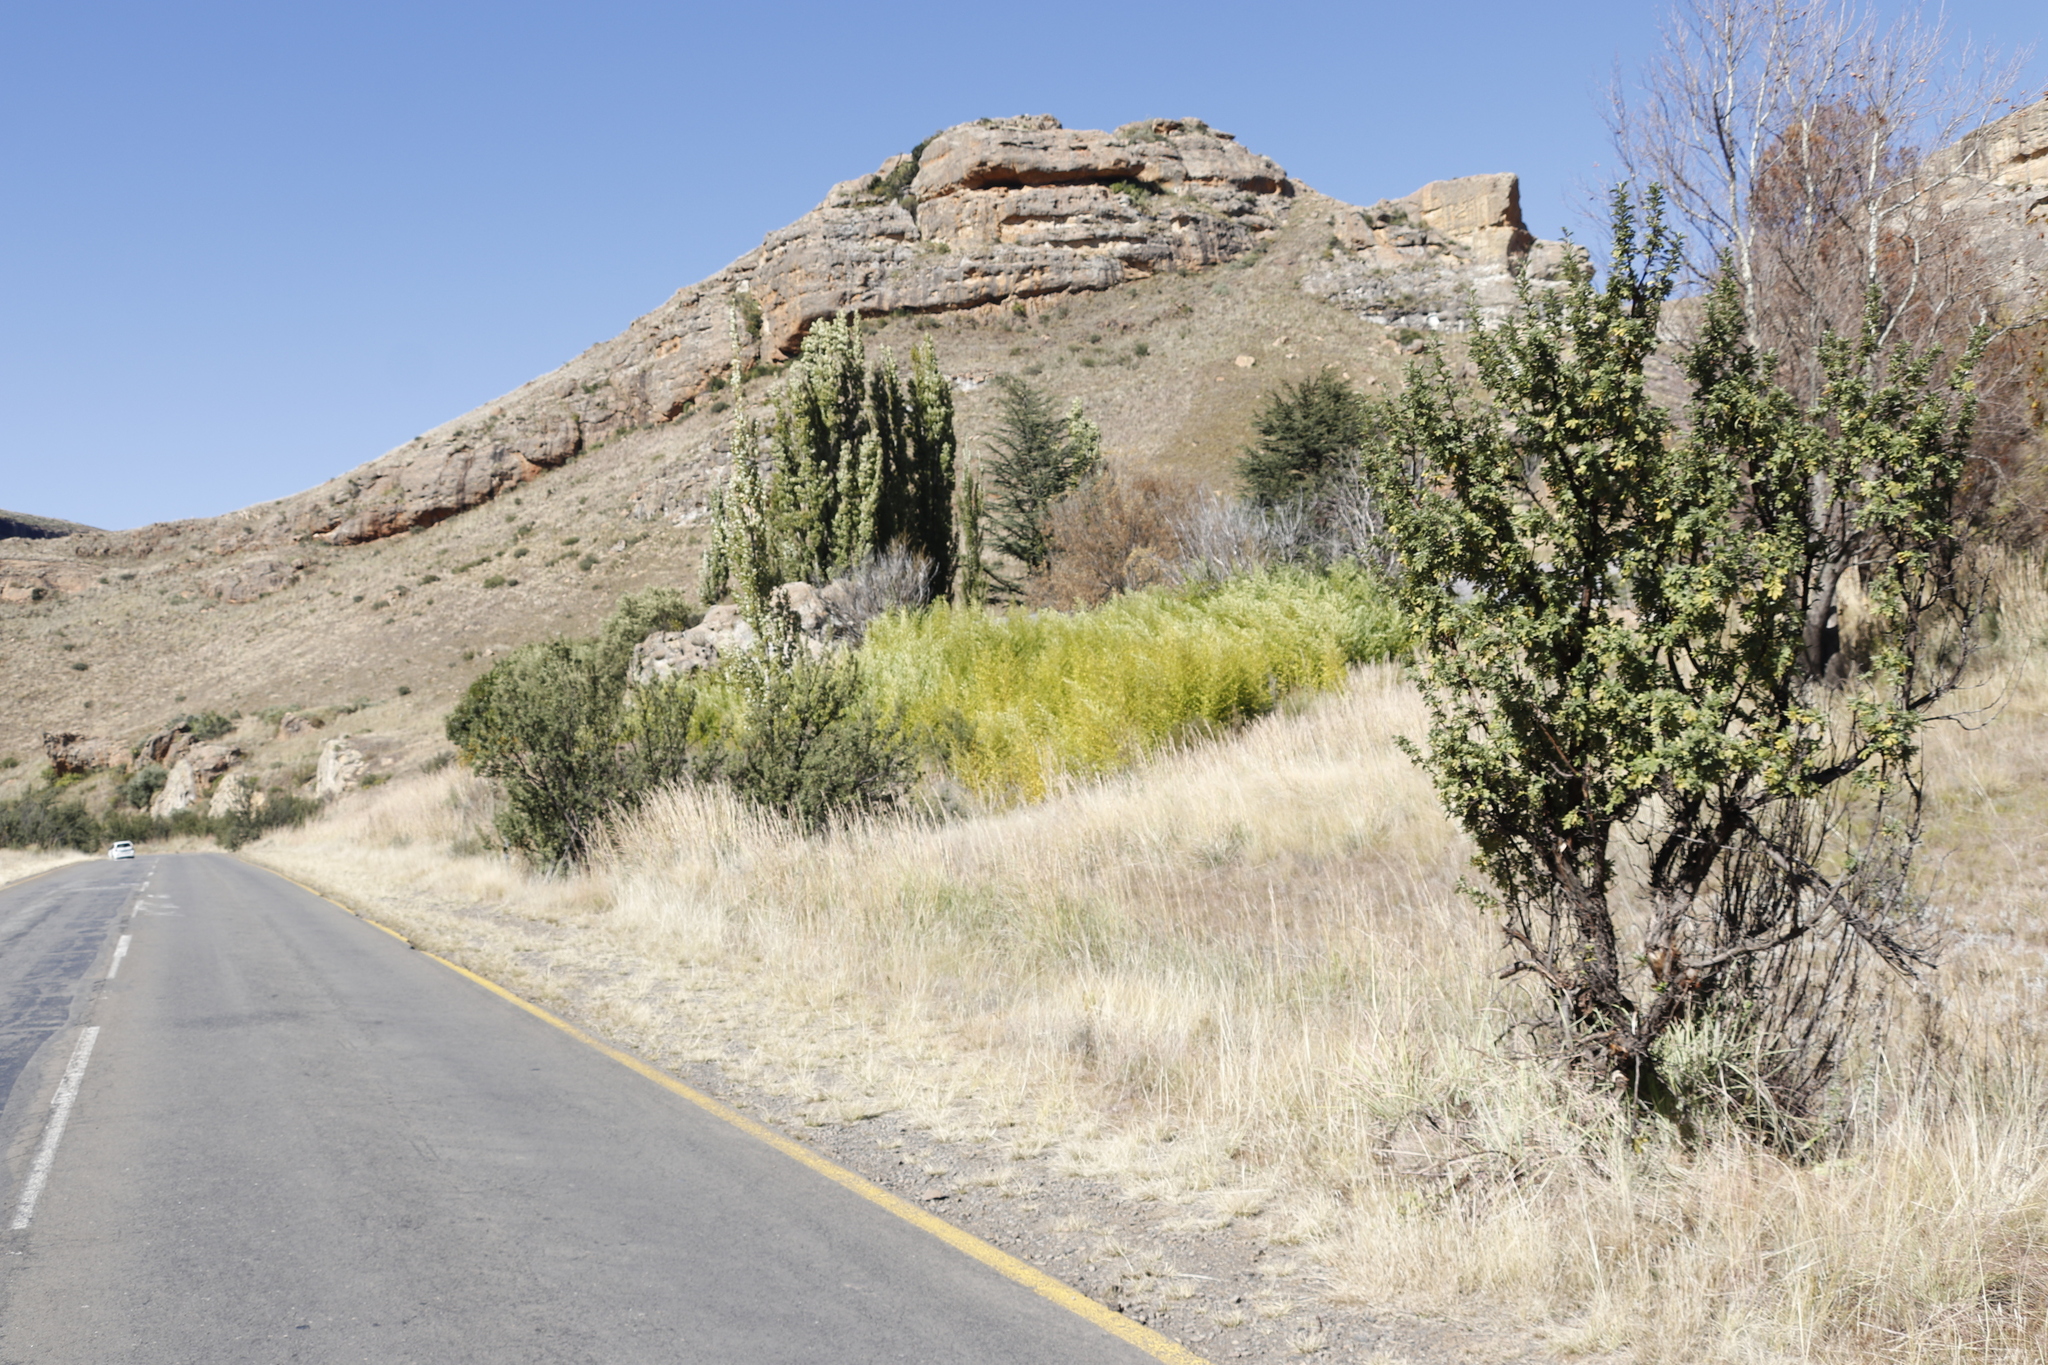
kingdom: Plantae
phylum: Tracheophyta
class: Magnoliopsida
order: Malpighiales
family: Salicaceae
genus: Populus
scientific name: Populus nigra
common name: Black poplar
